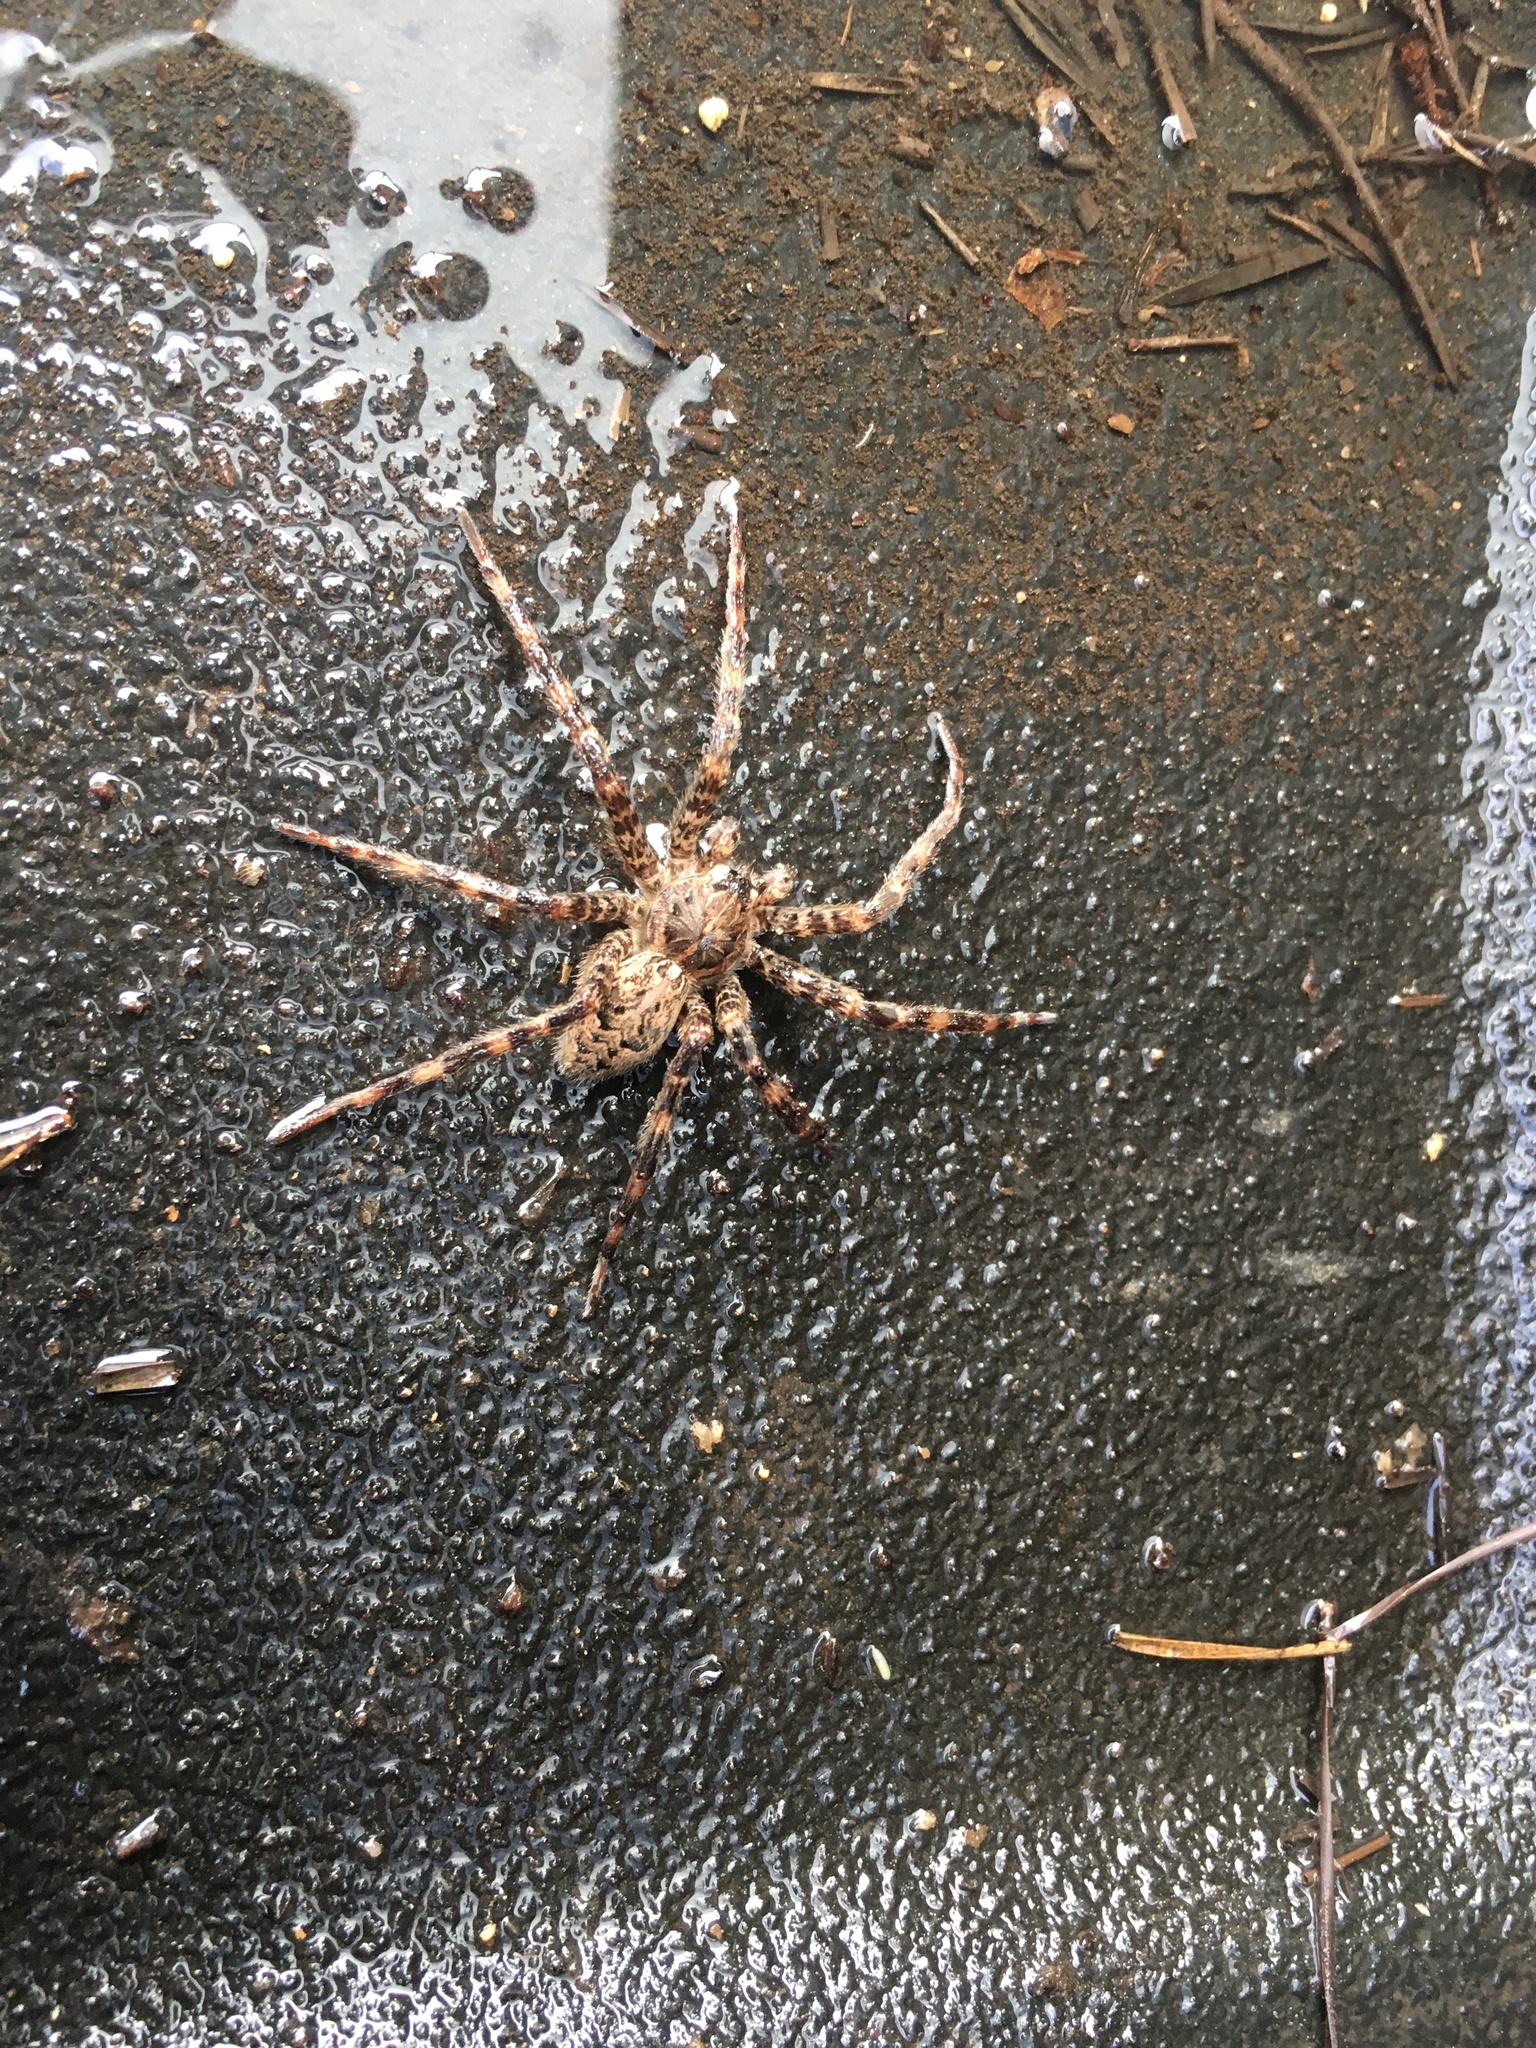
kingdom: Animalia
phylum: Arthropoda
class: Arachnida
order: Araneae
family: Pisauridae
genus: Dolomedes
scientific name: Dolomedes tenebrosus
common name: Dark fishing spider
